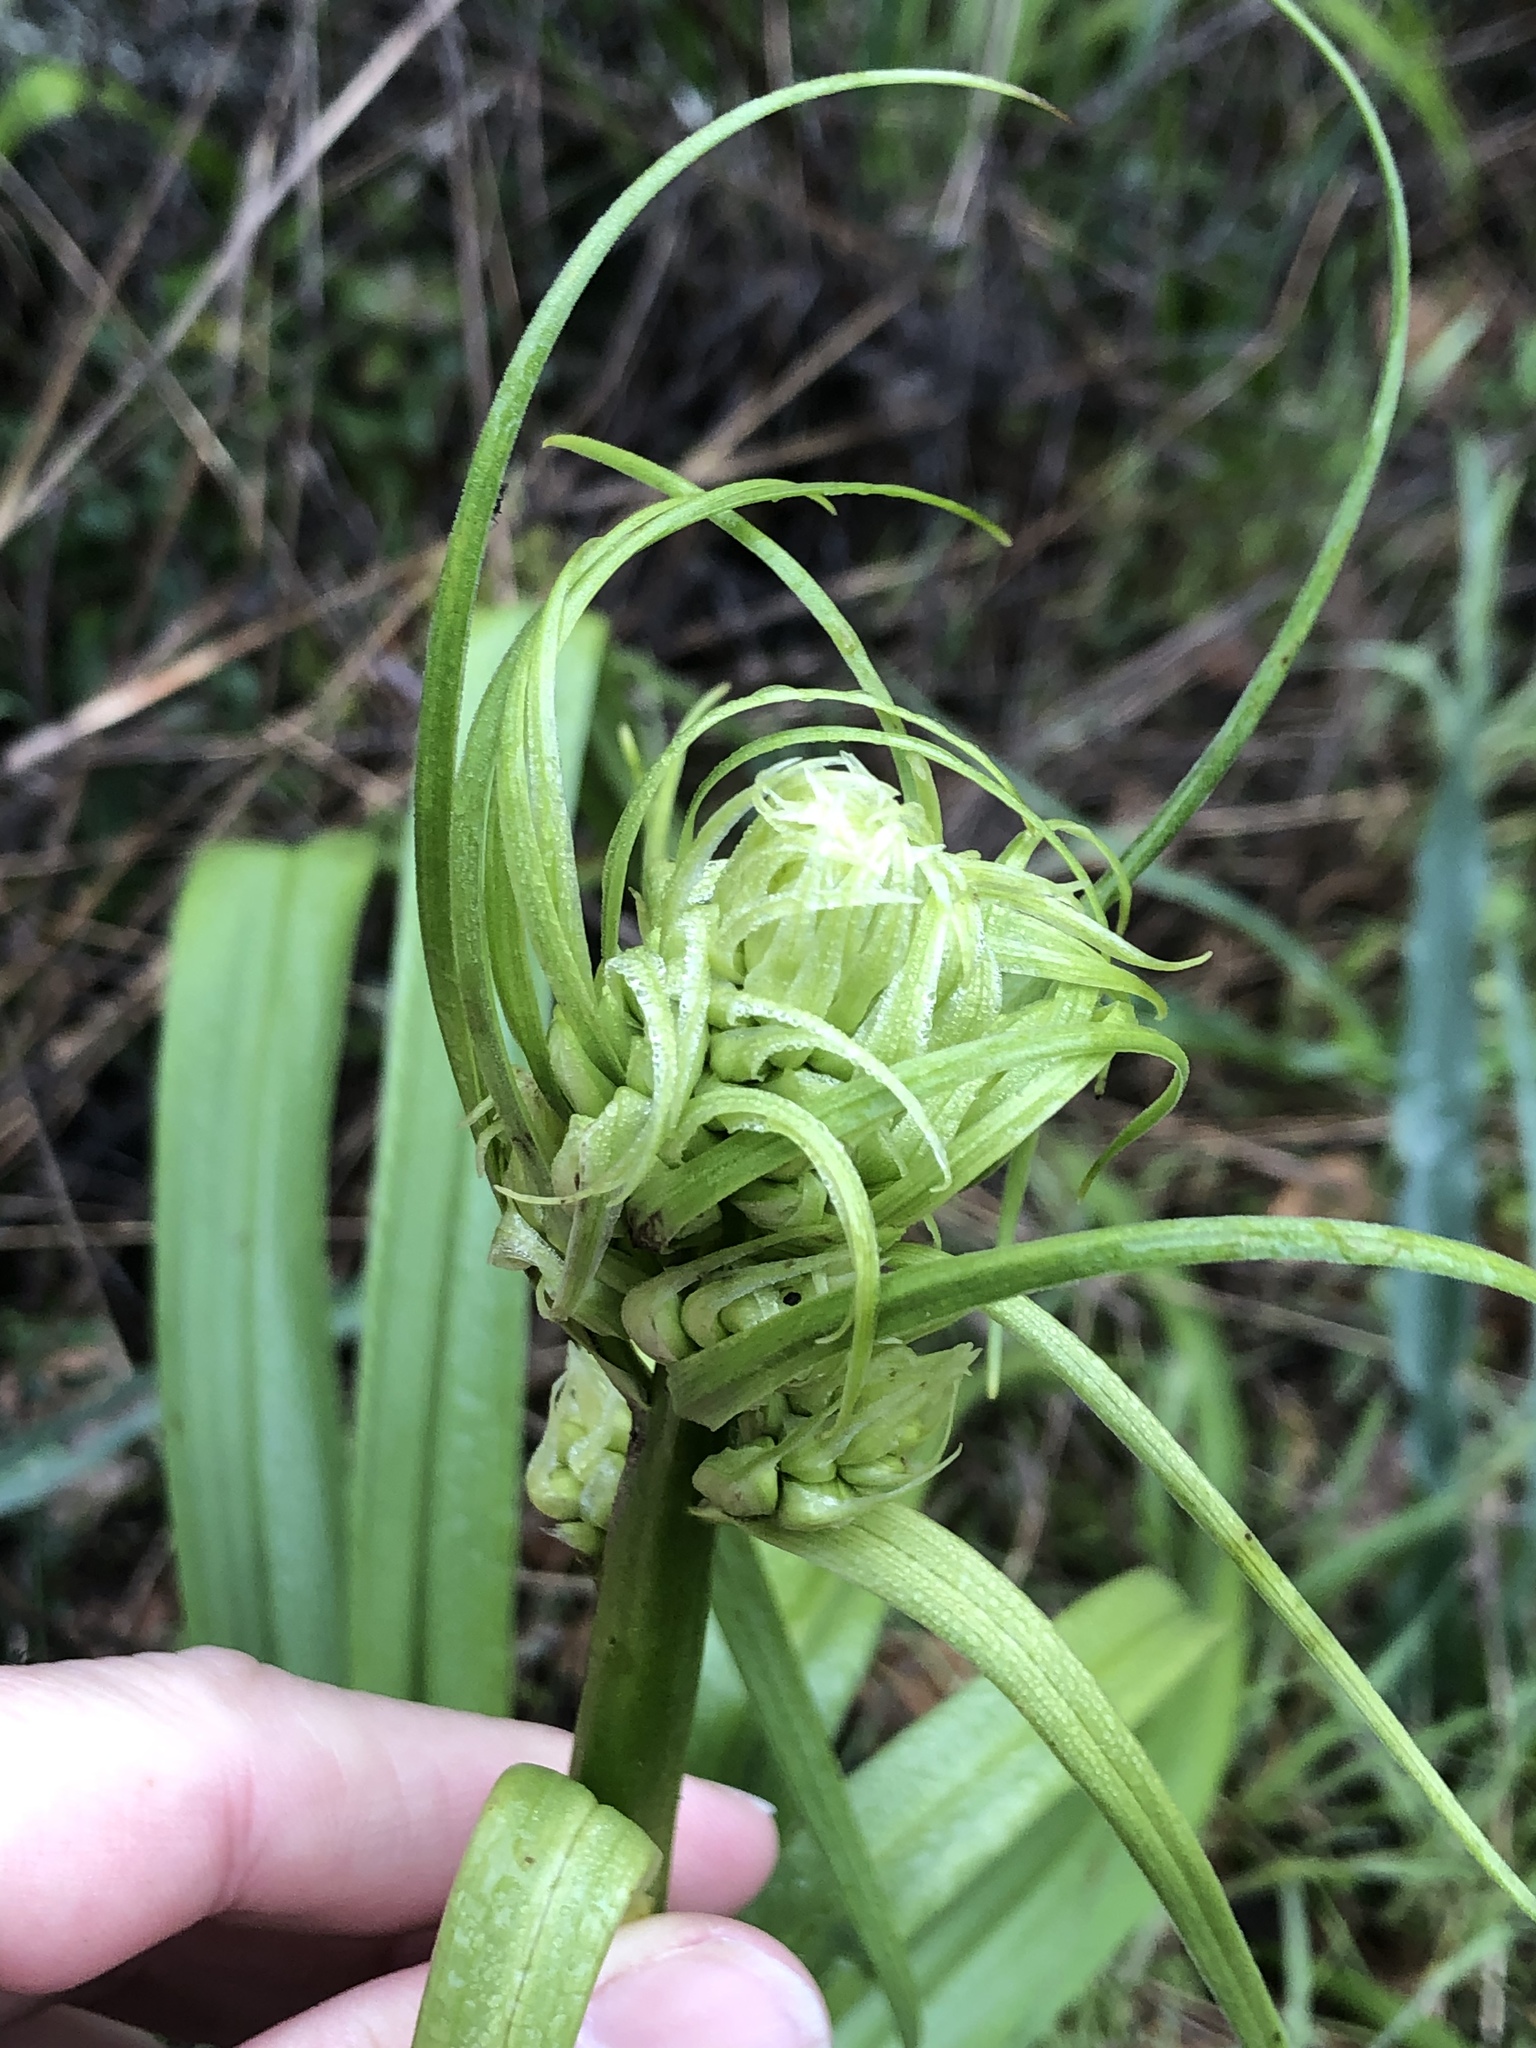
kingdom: Plantae
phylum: Tracheophyta
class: Liliopsida
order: Liliales
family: Melanthiaceae
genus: Toxicoscordion
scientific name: Toxicoscordion fremontii
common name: Fremont's death camas
